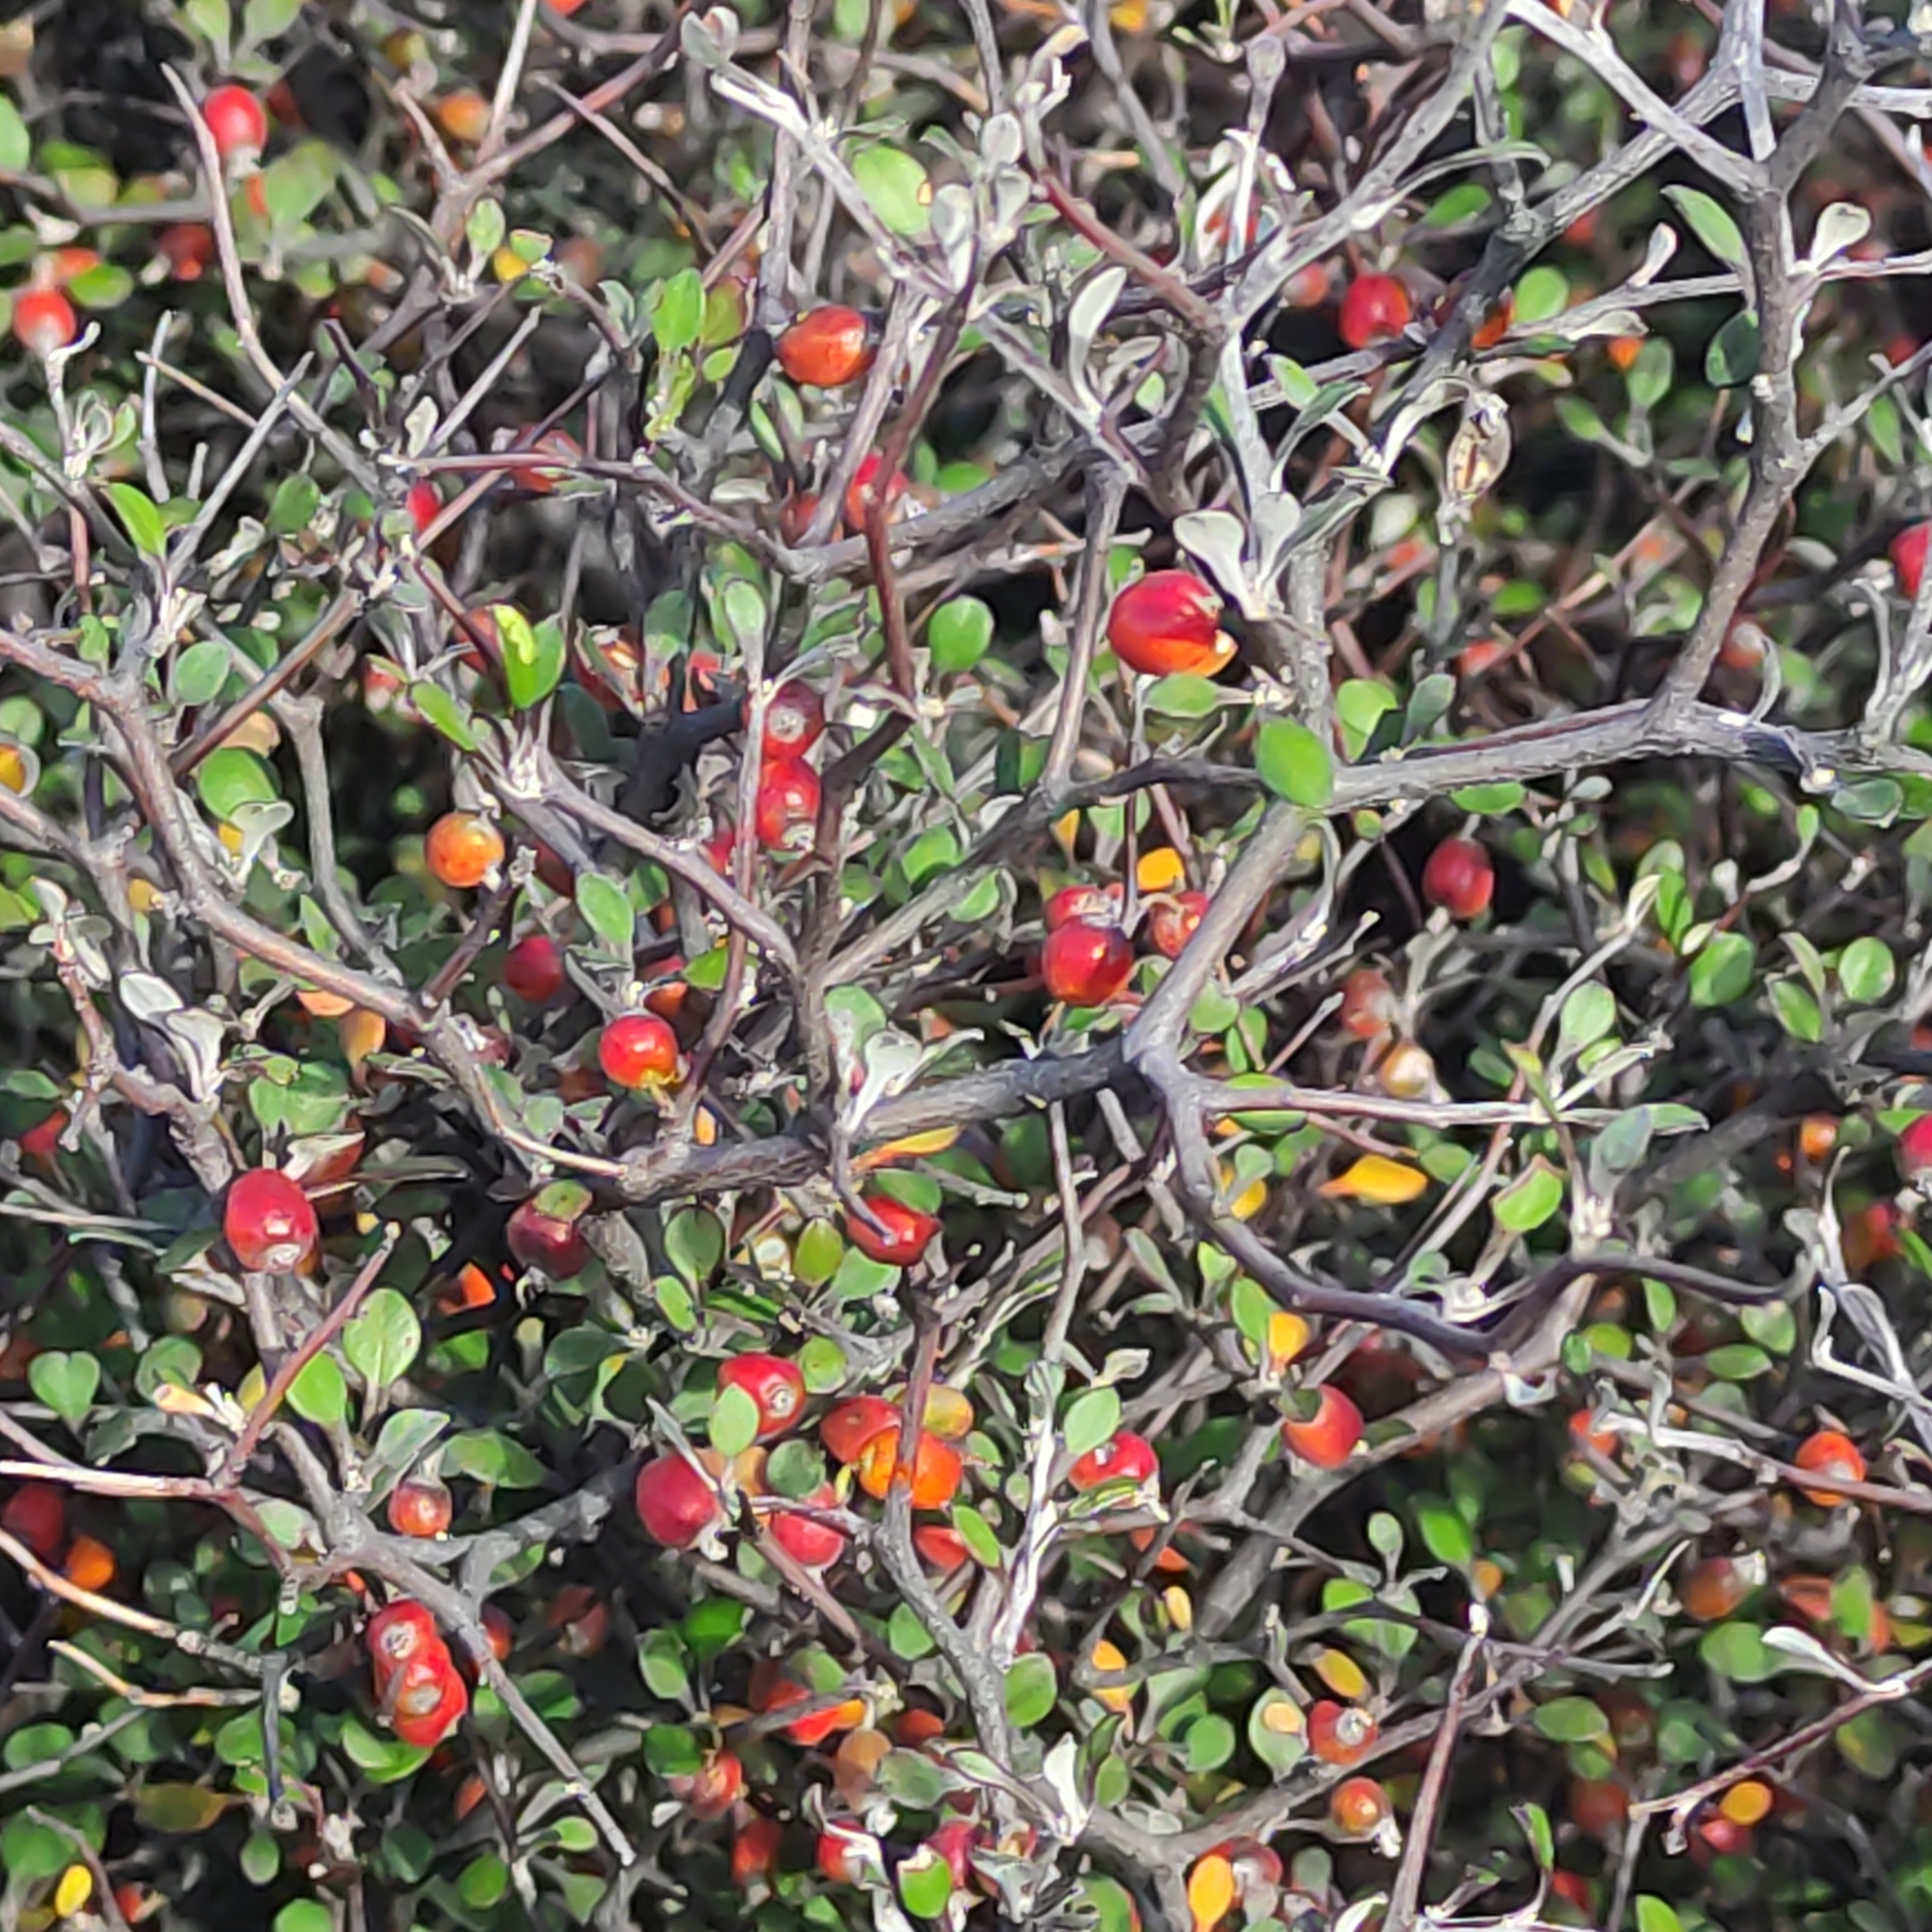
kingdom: Plantae
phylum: Tracheophyta
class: Magnoliopsida
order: Asterales
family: Argophyllaceae
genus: Corokia
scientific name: Corokia cotoneaster
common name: Wire nettingbush
